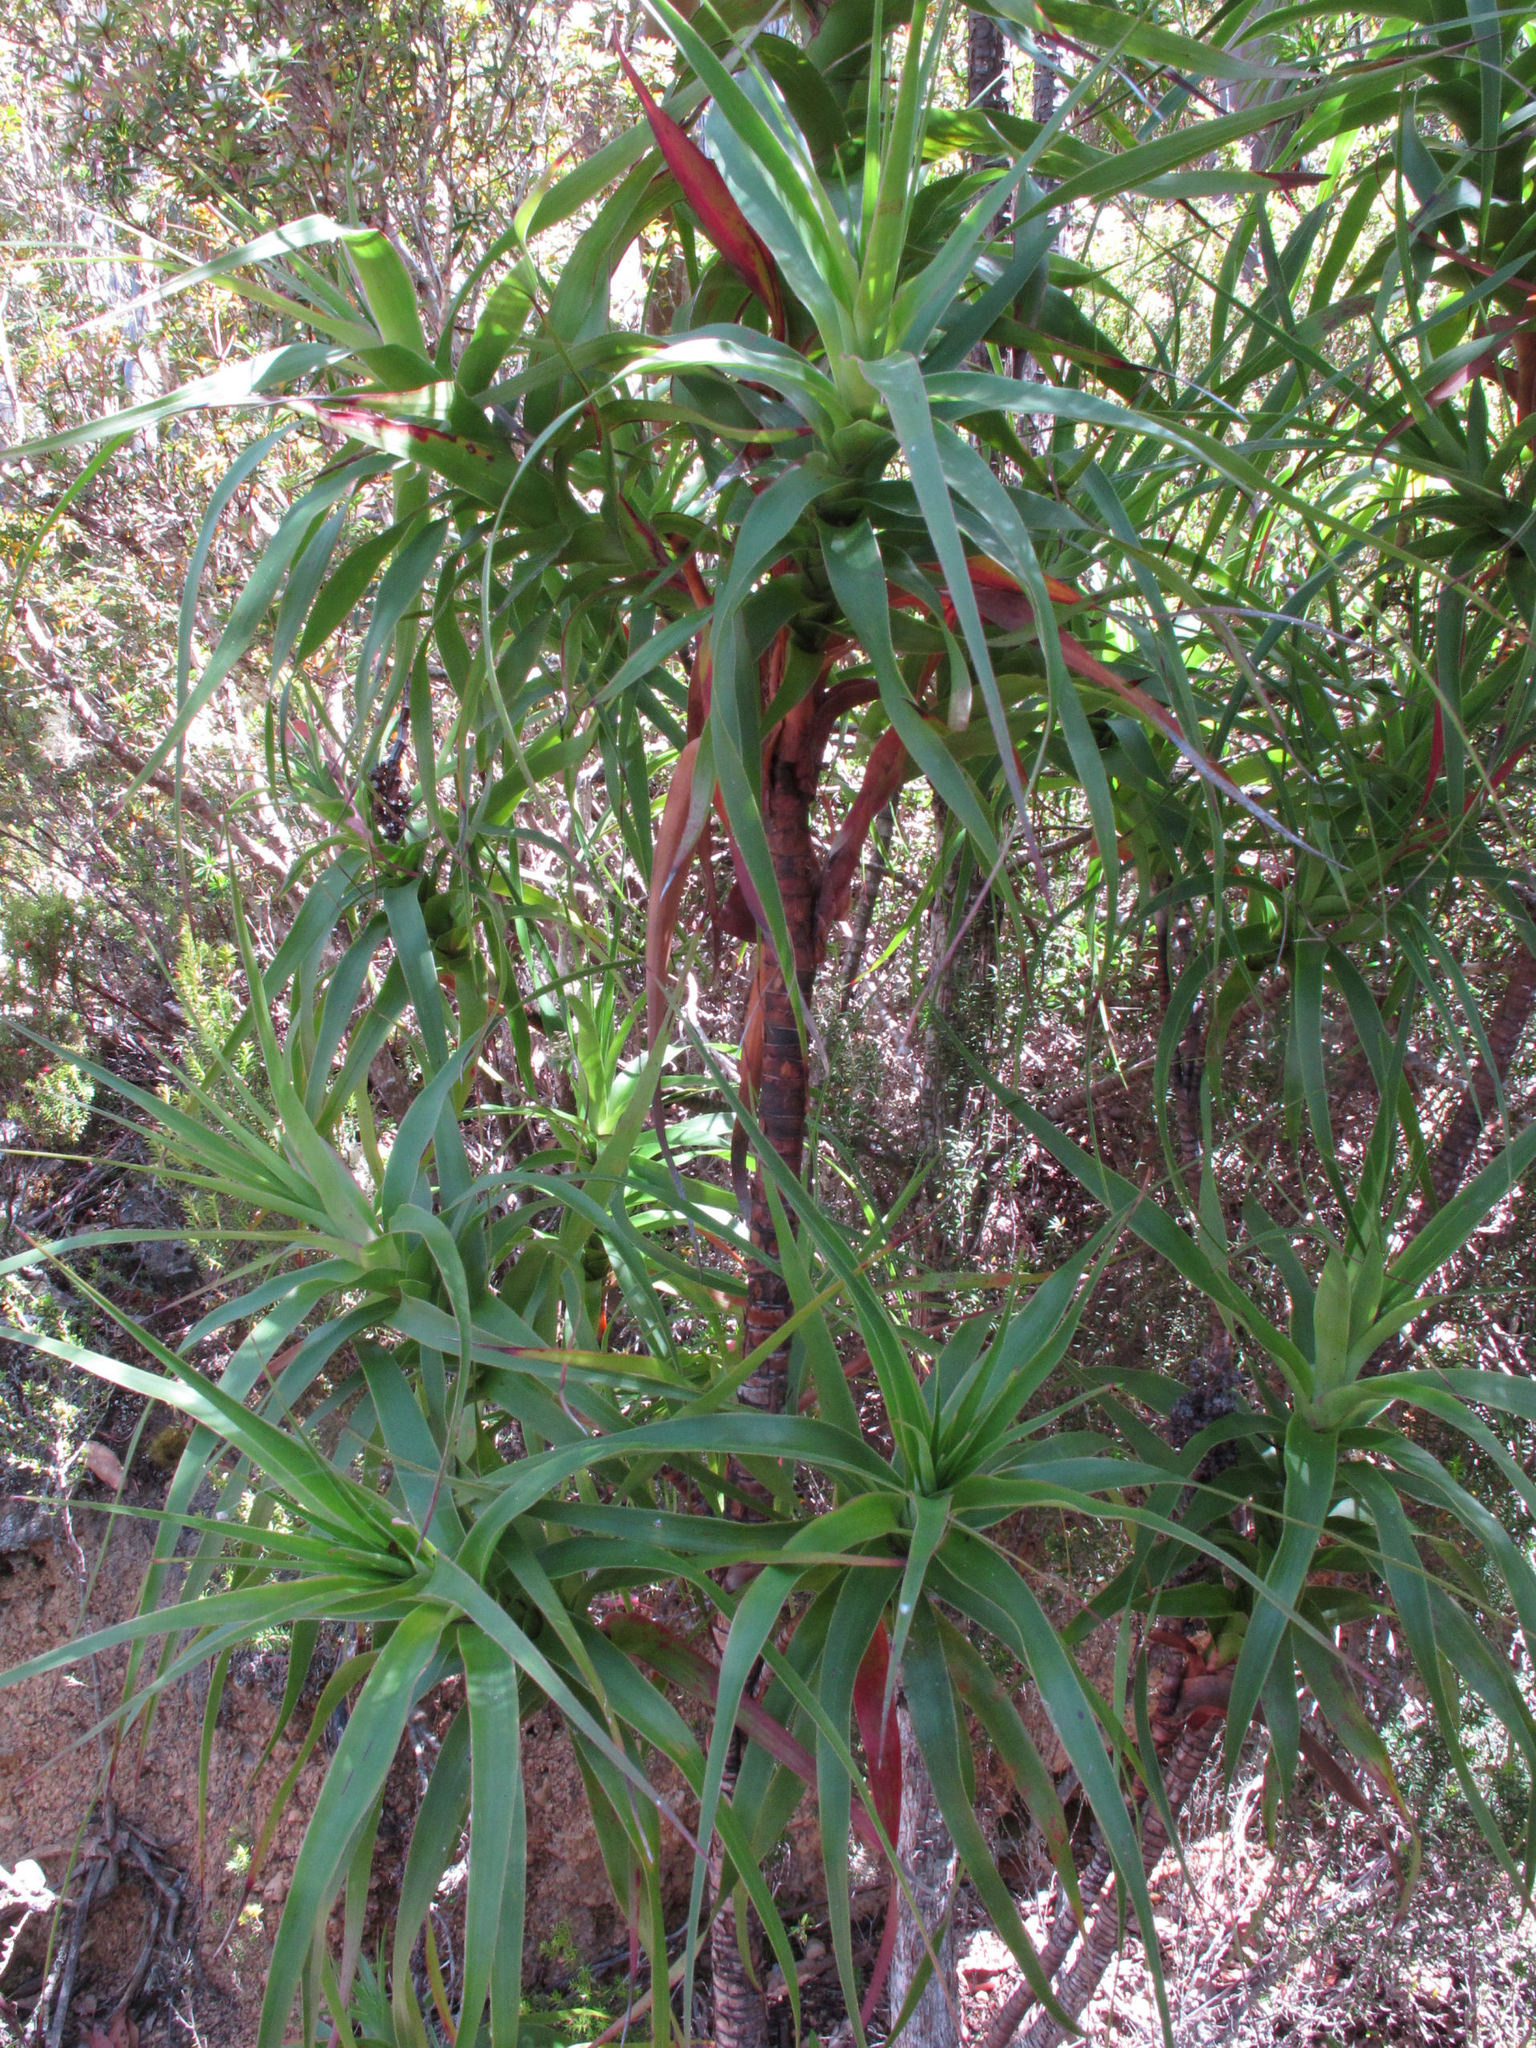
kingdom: Plantae
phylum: Tracheophyta
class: Magnoliopsida
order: Ericales
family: Ericaceae
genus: Dracophyllum
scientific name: Dracophyllum desgrazii
